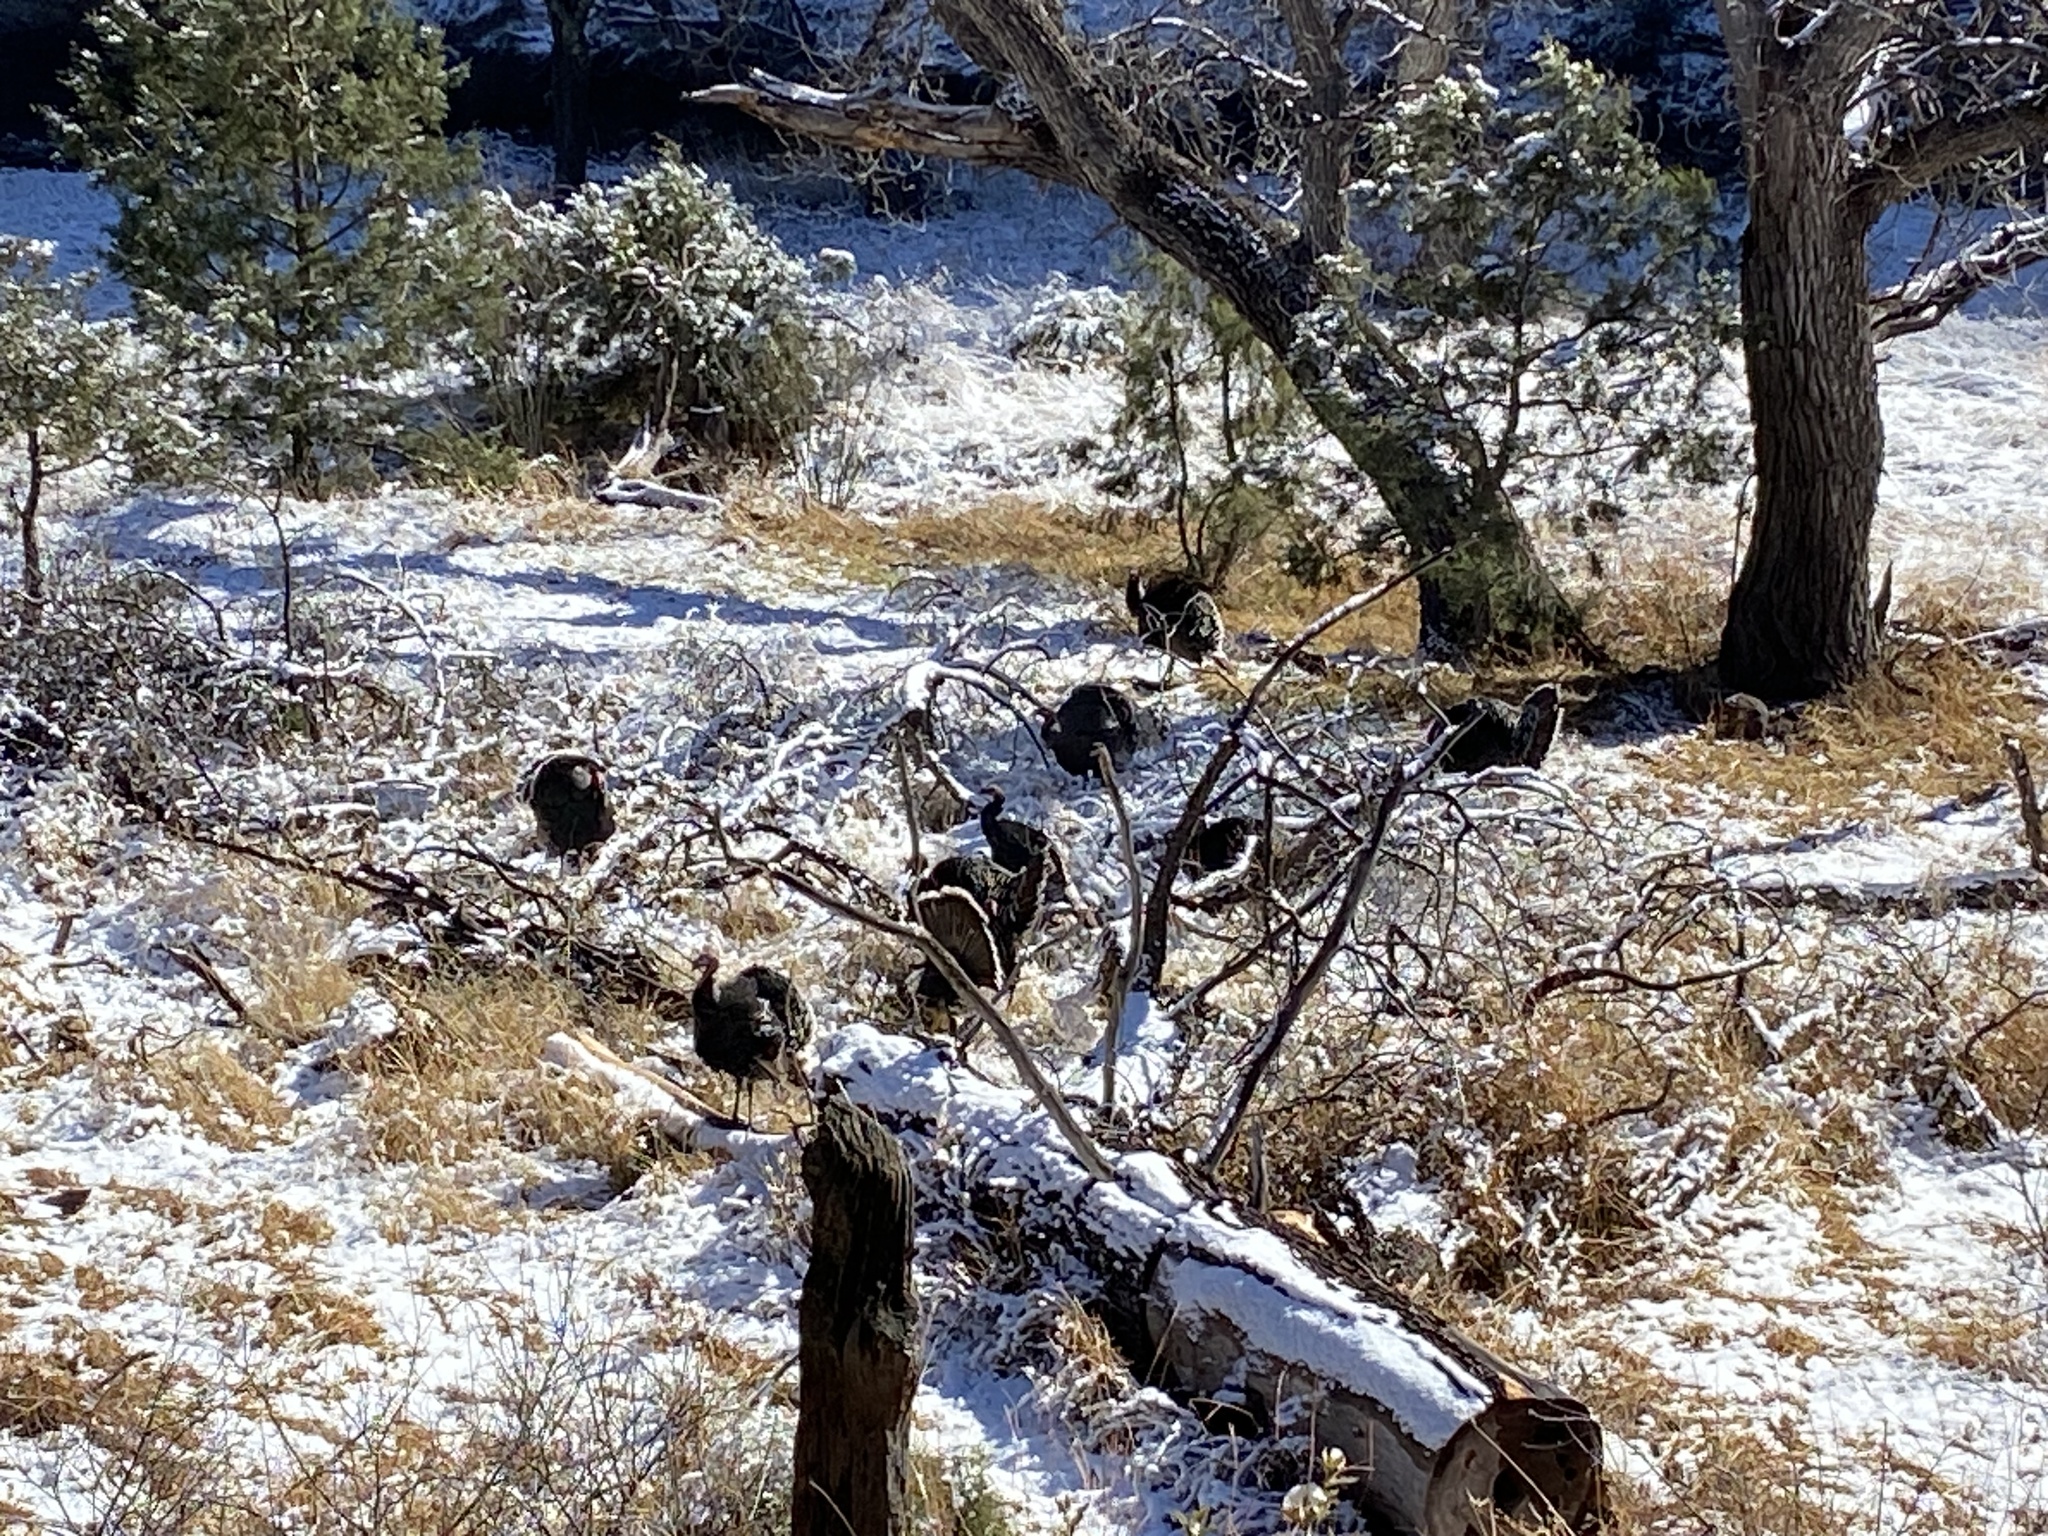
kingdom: Animalia
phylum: Chordata
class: Aves
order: Galliformes
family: Phasianidae
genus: Meleagris
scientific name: Meleagris gallopavo
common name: Wild turkey
